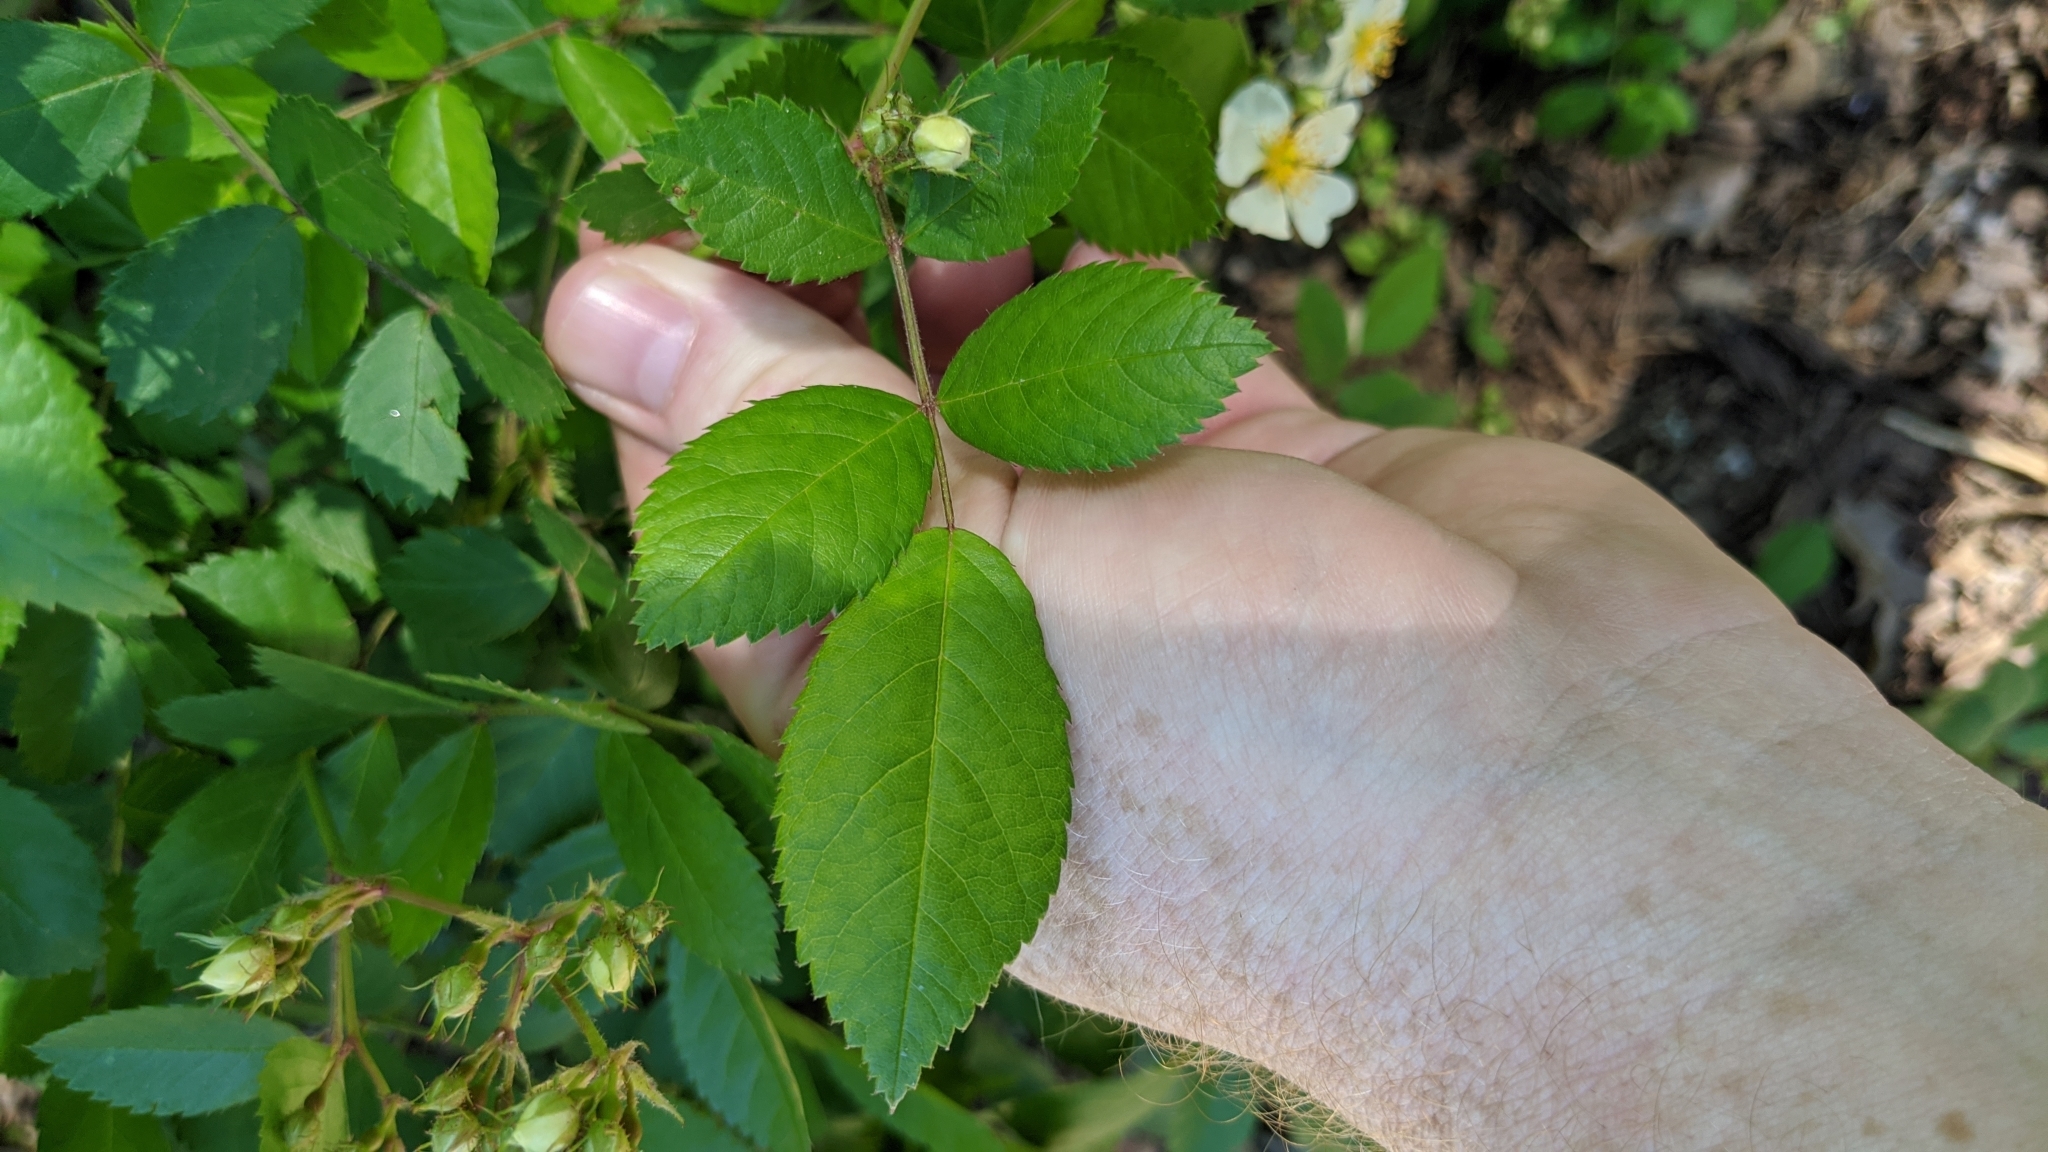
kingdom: Plantae
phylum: Tracheophyta
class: Magnoliopsida
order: Rosales
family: Rosaceae
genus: Rosa
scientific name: Rosa multiflora
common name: Multiflora rose
